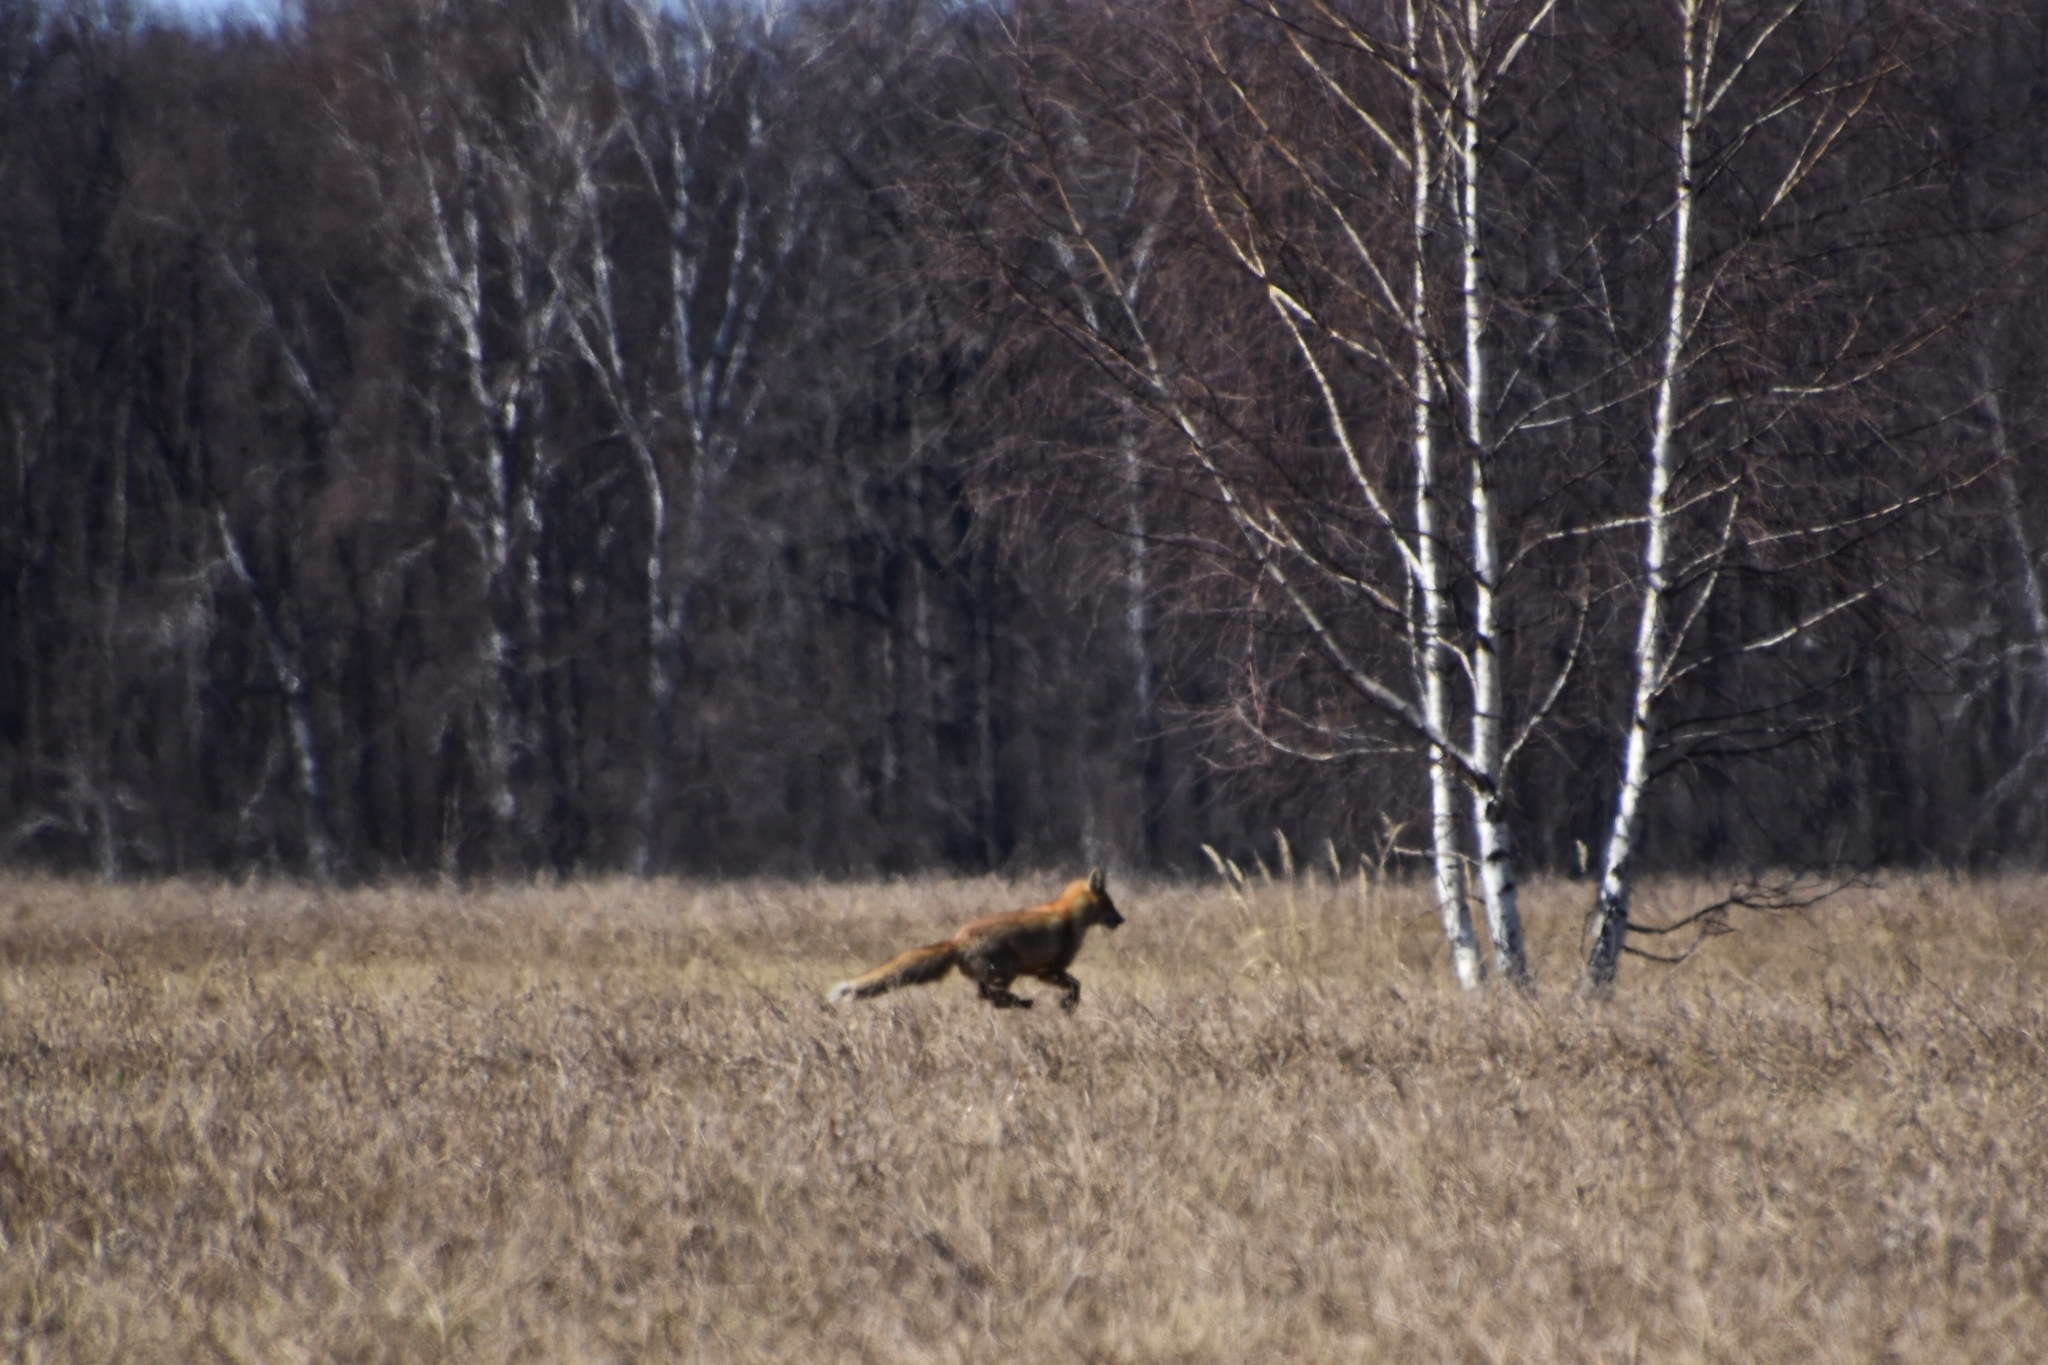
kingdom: Animalia
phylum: Chordata
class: Mammalia
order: Carnivora
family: Canidae
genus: Vulpes
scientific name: Vulpes vulpes
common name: Red fox
